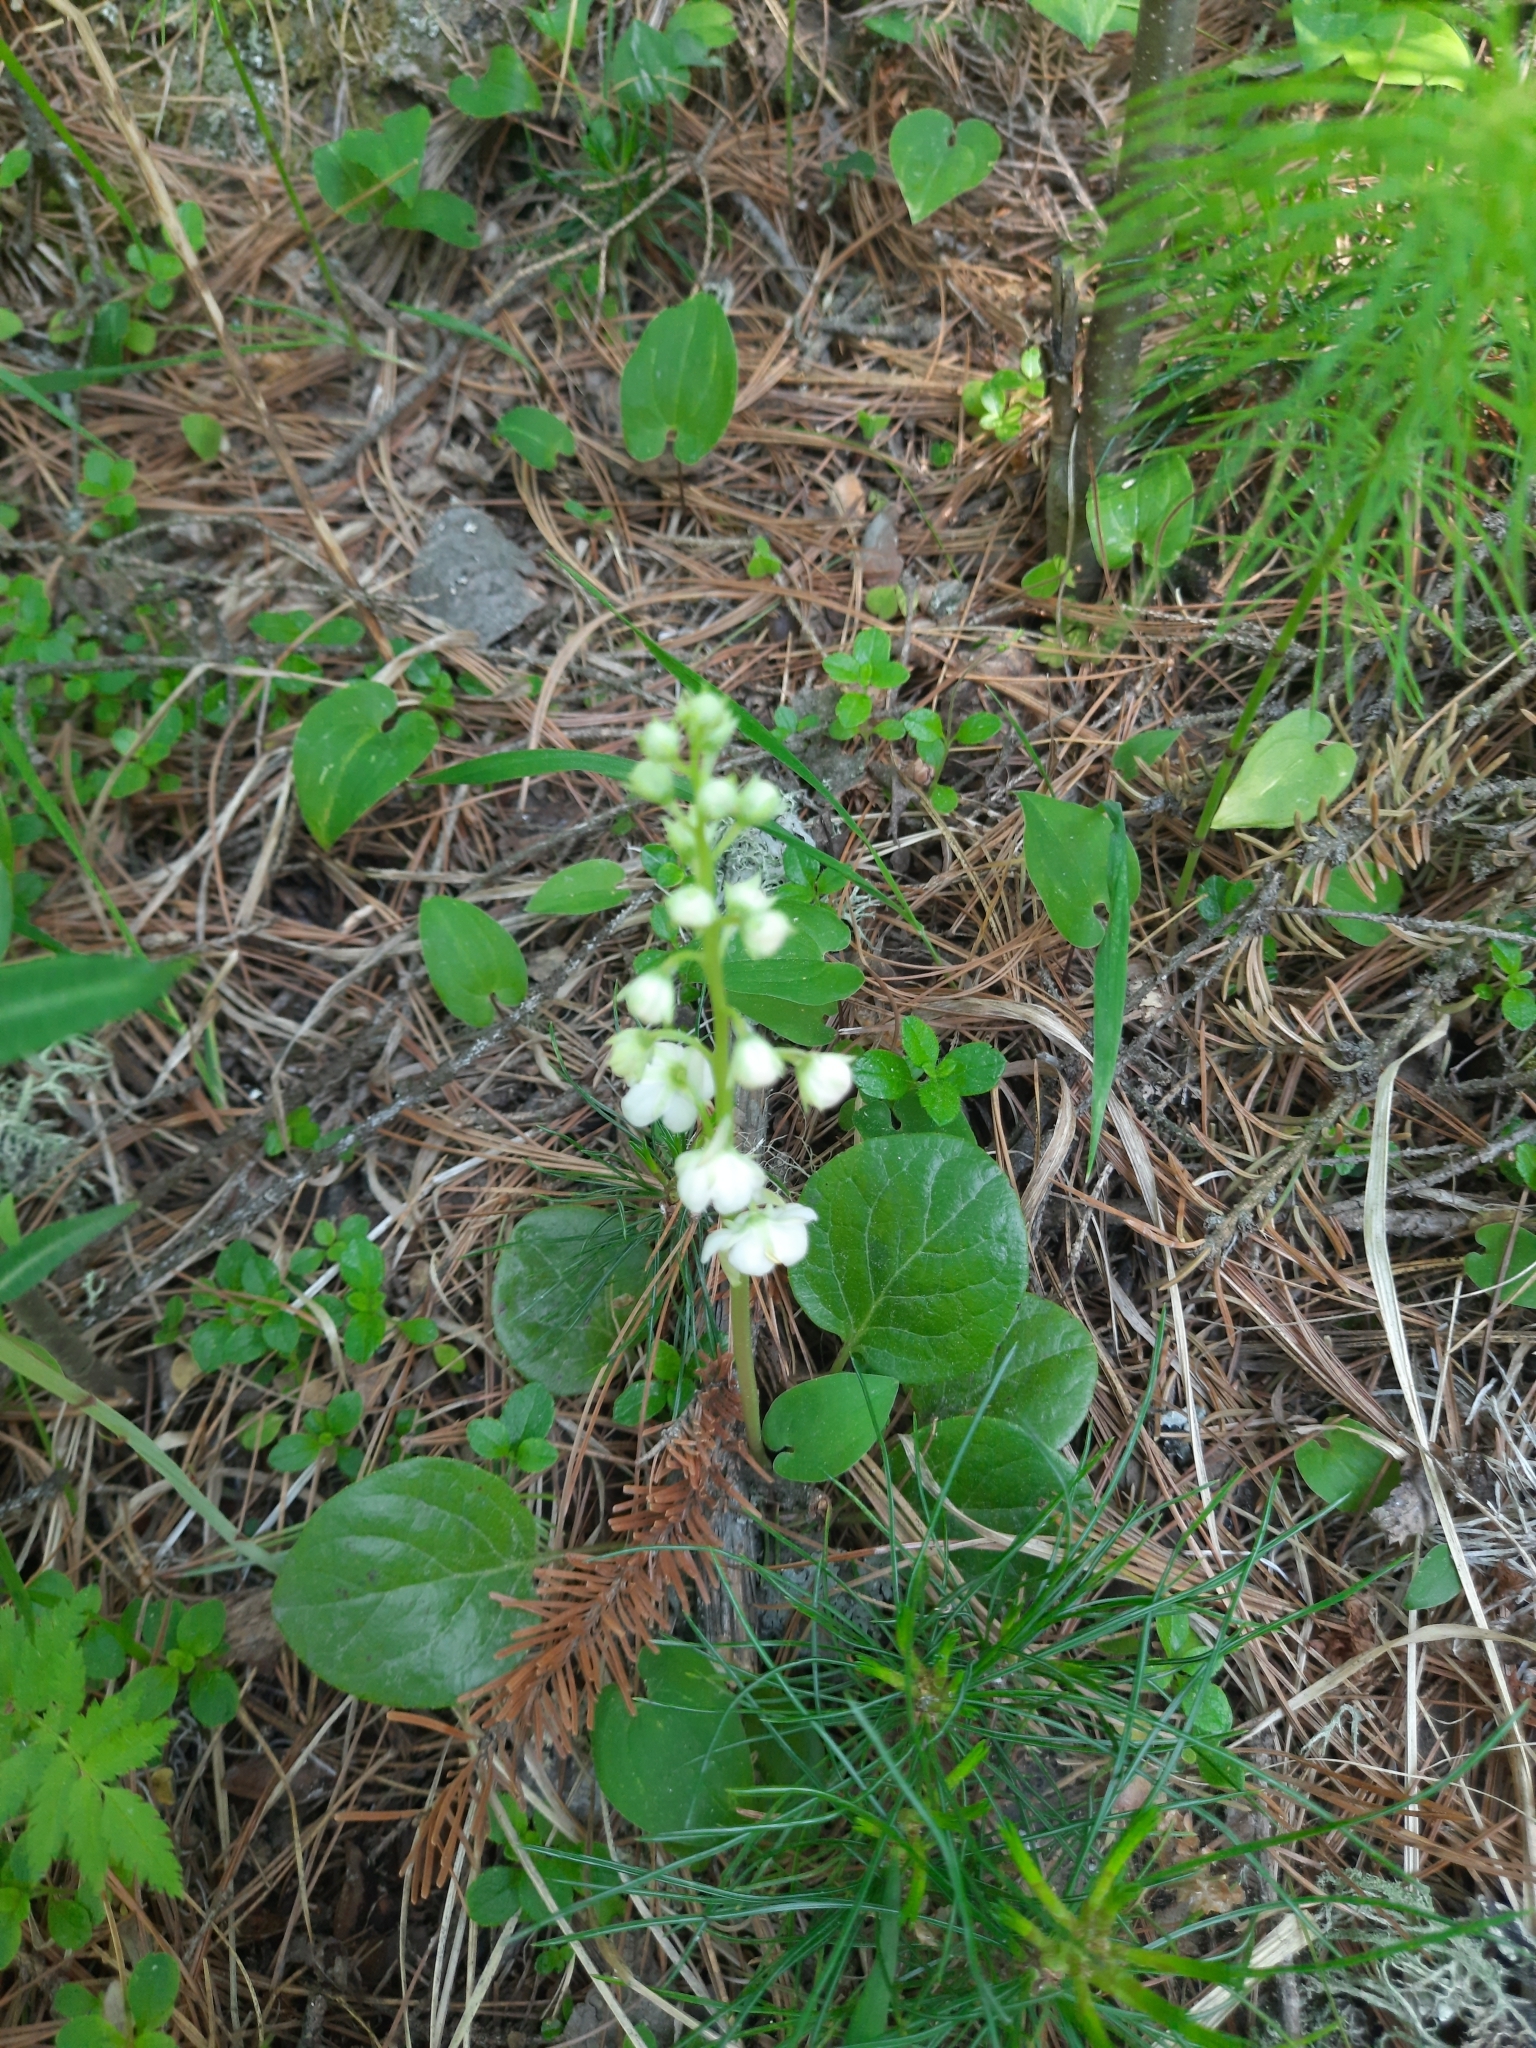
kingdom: Plantae
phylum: Tracheophyta
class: Magnoliopsida
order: Ericales
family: Ericaceae
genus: Pyrola
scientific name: Pyrola rotundifolia
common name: Round-leaved wintergreen
